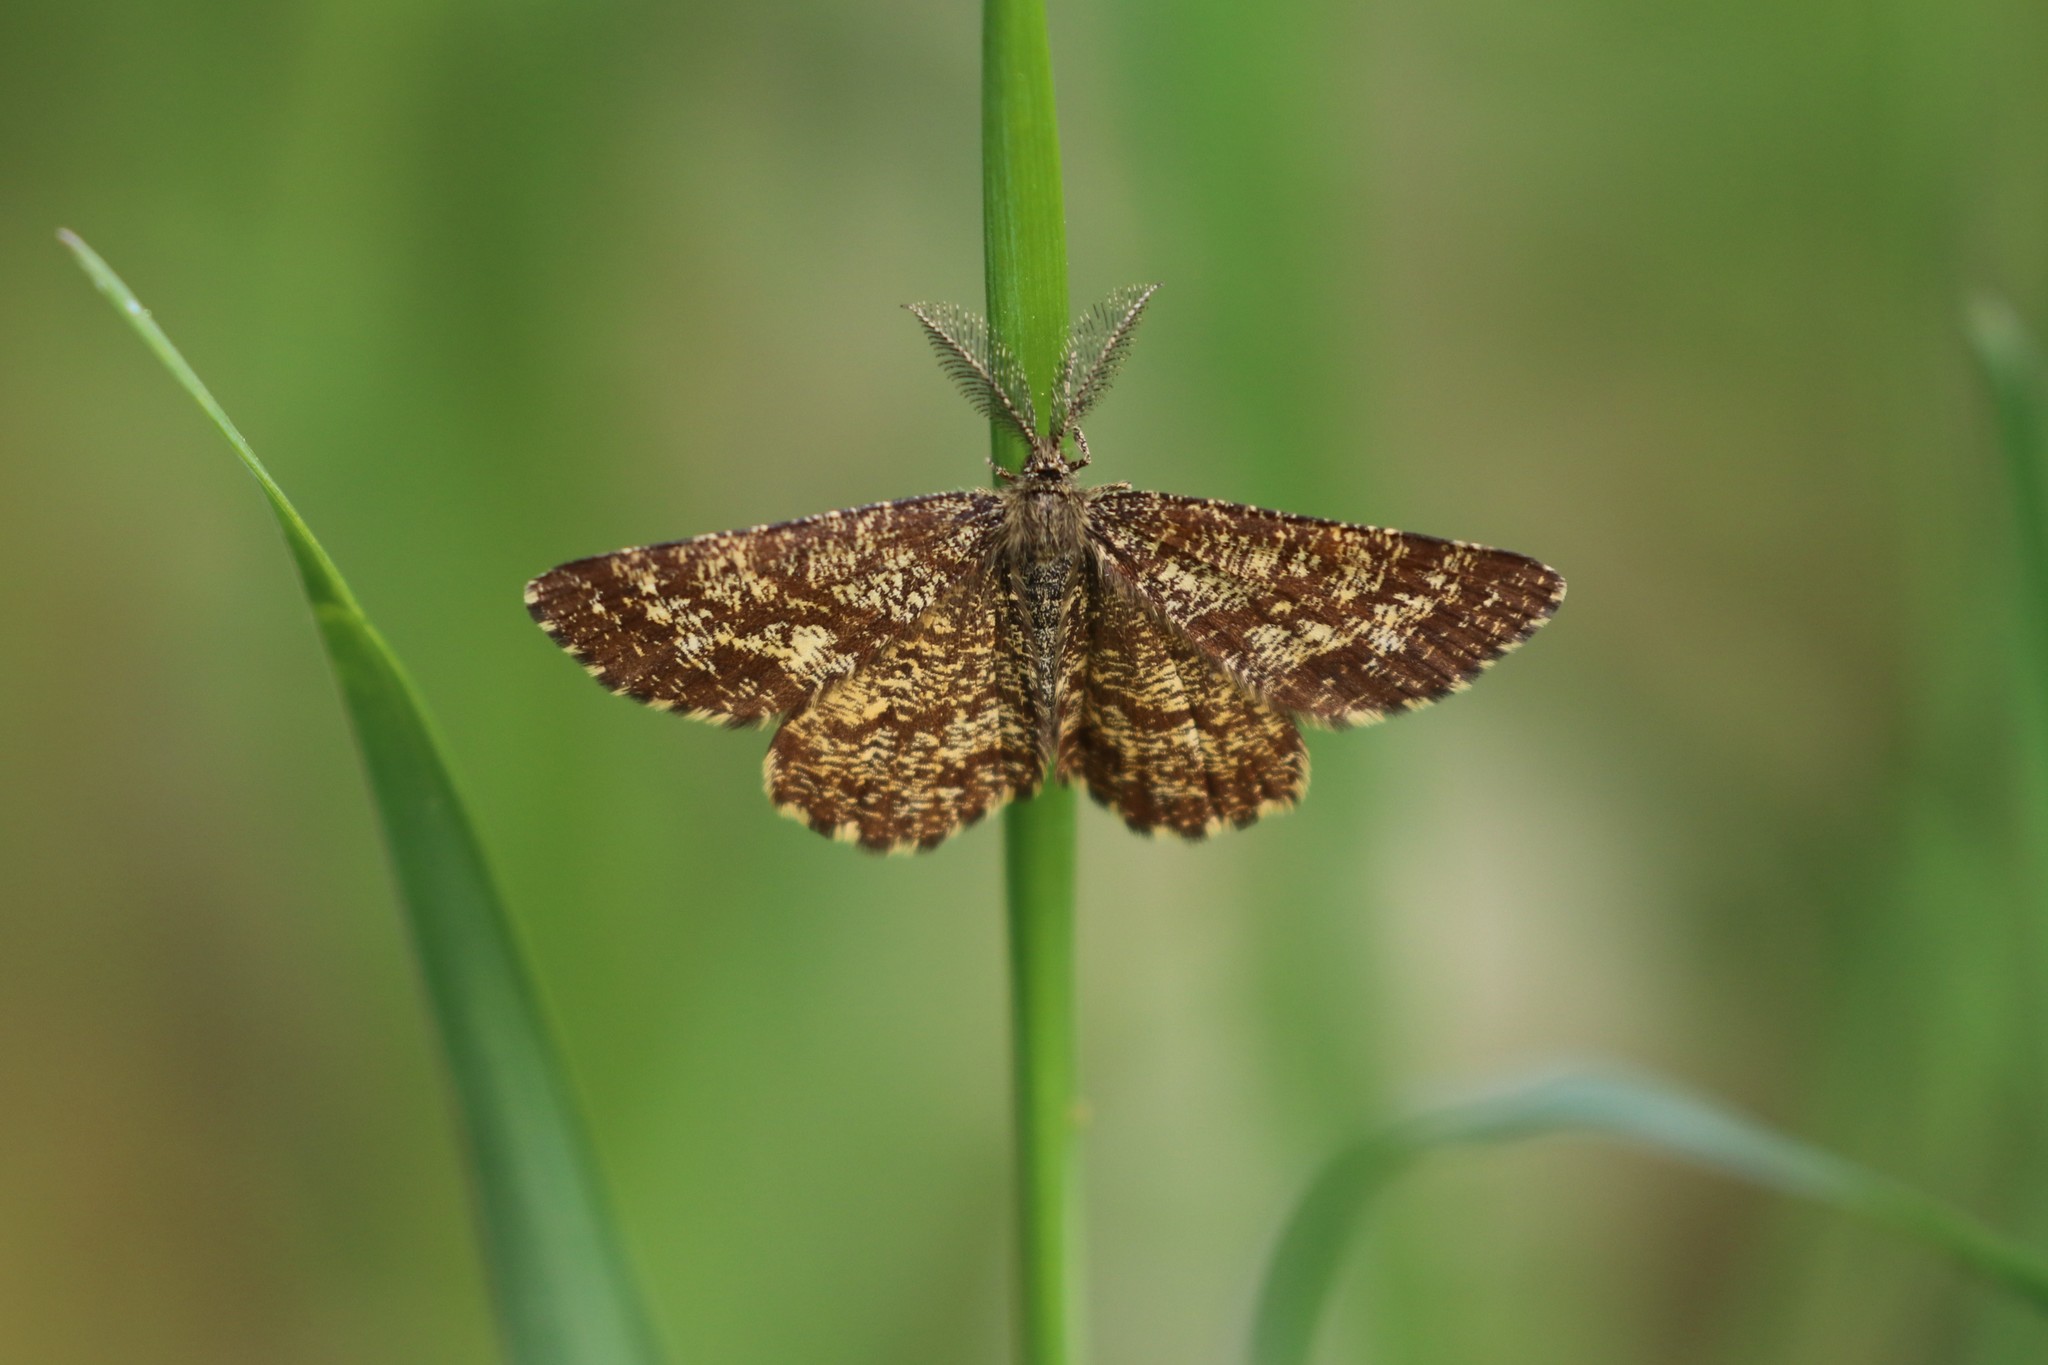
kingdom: Animalia
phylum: Arthropoda
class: Insecta
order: Lepidoptera
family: Geometridae
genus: Ematurga
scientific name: Ematurga atomaria
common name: Common heath
